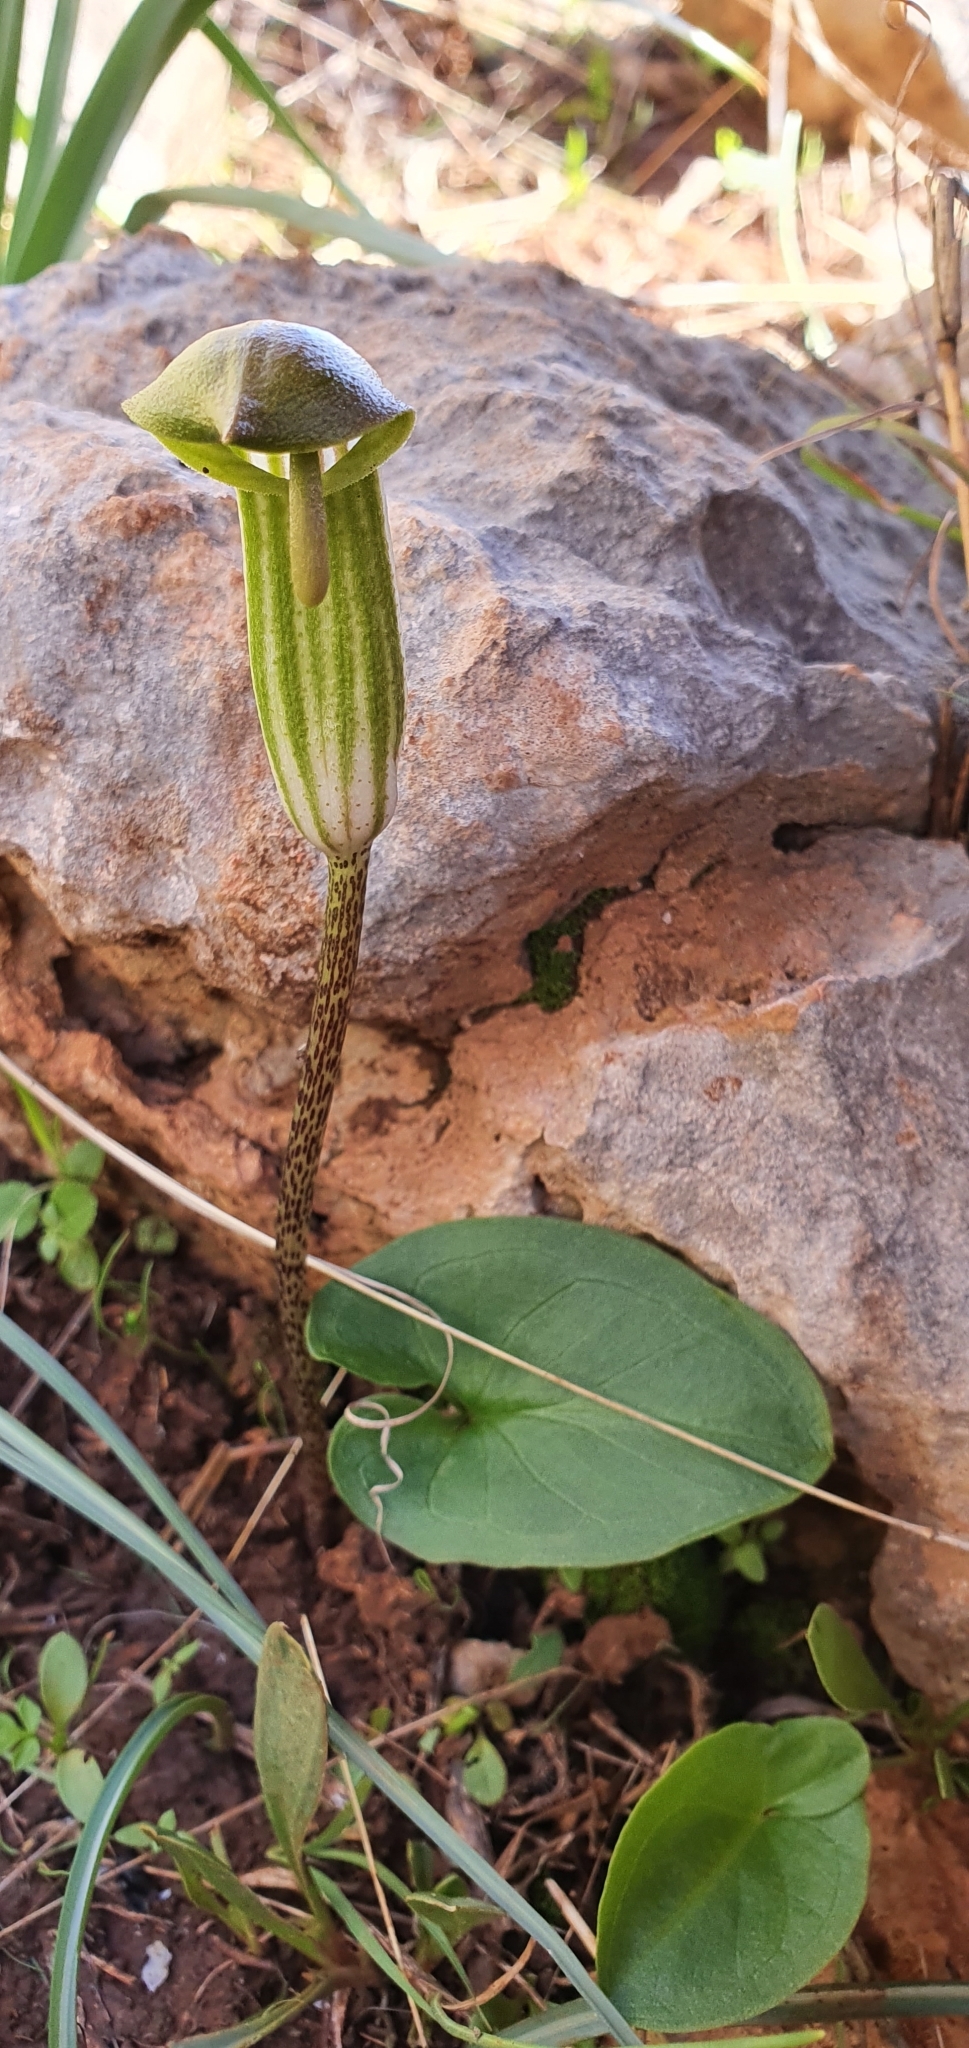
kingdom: Plantae
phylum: Tracheophyta
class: Liliopsida
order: Alismatales
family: Araceae
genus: Arisarum
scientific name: Arisarum vulgare
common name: Common arisarum
